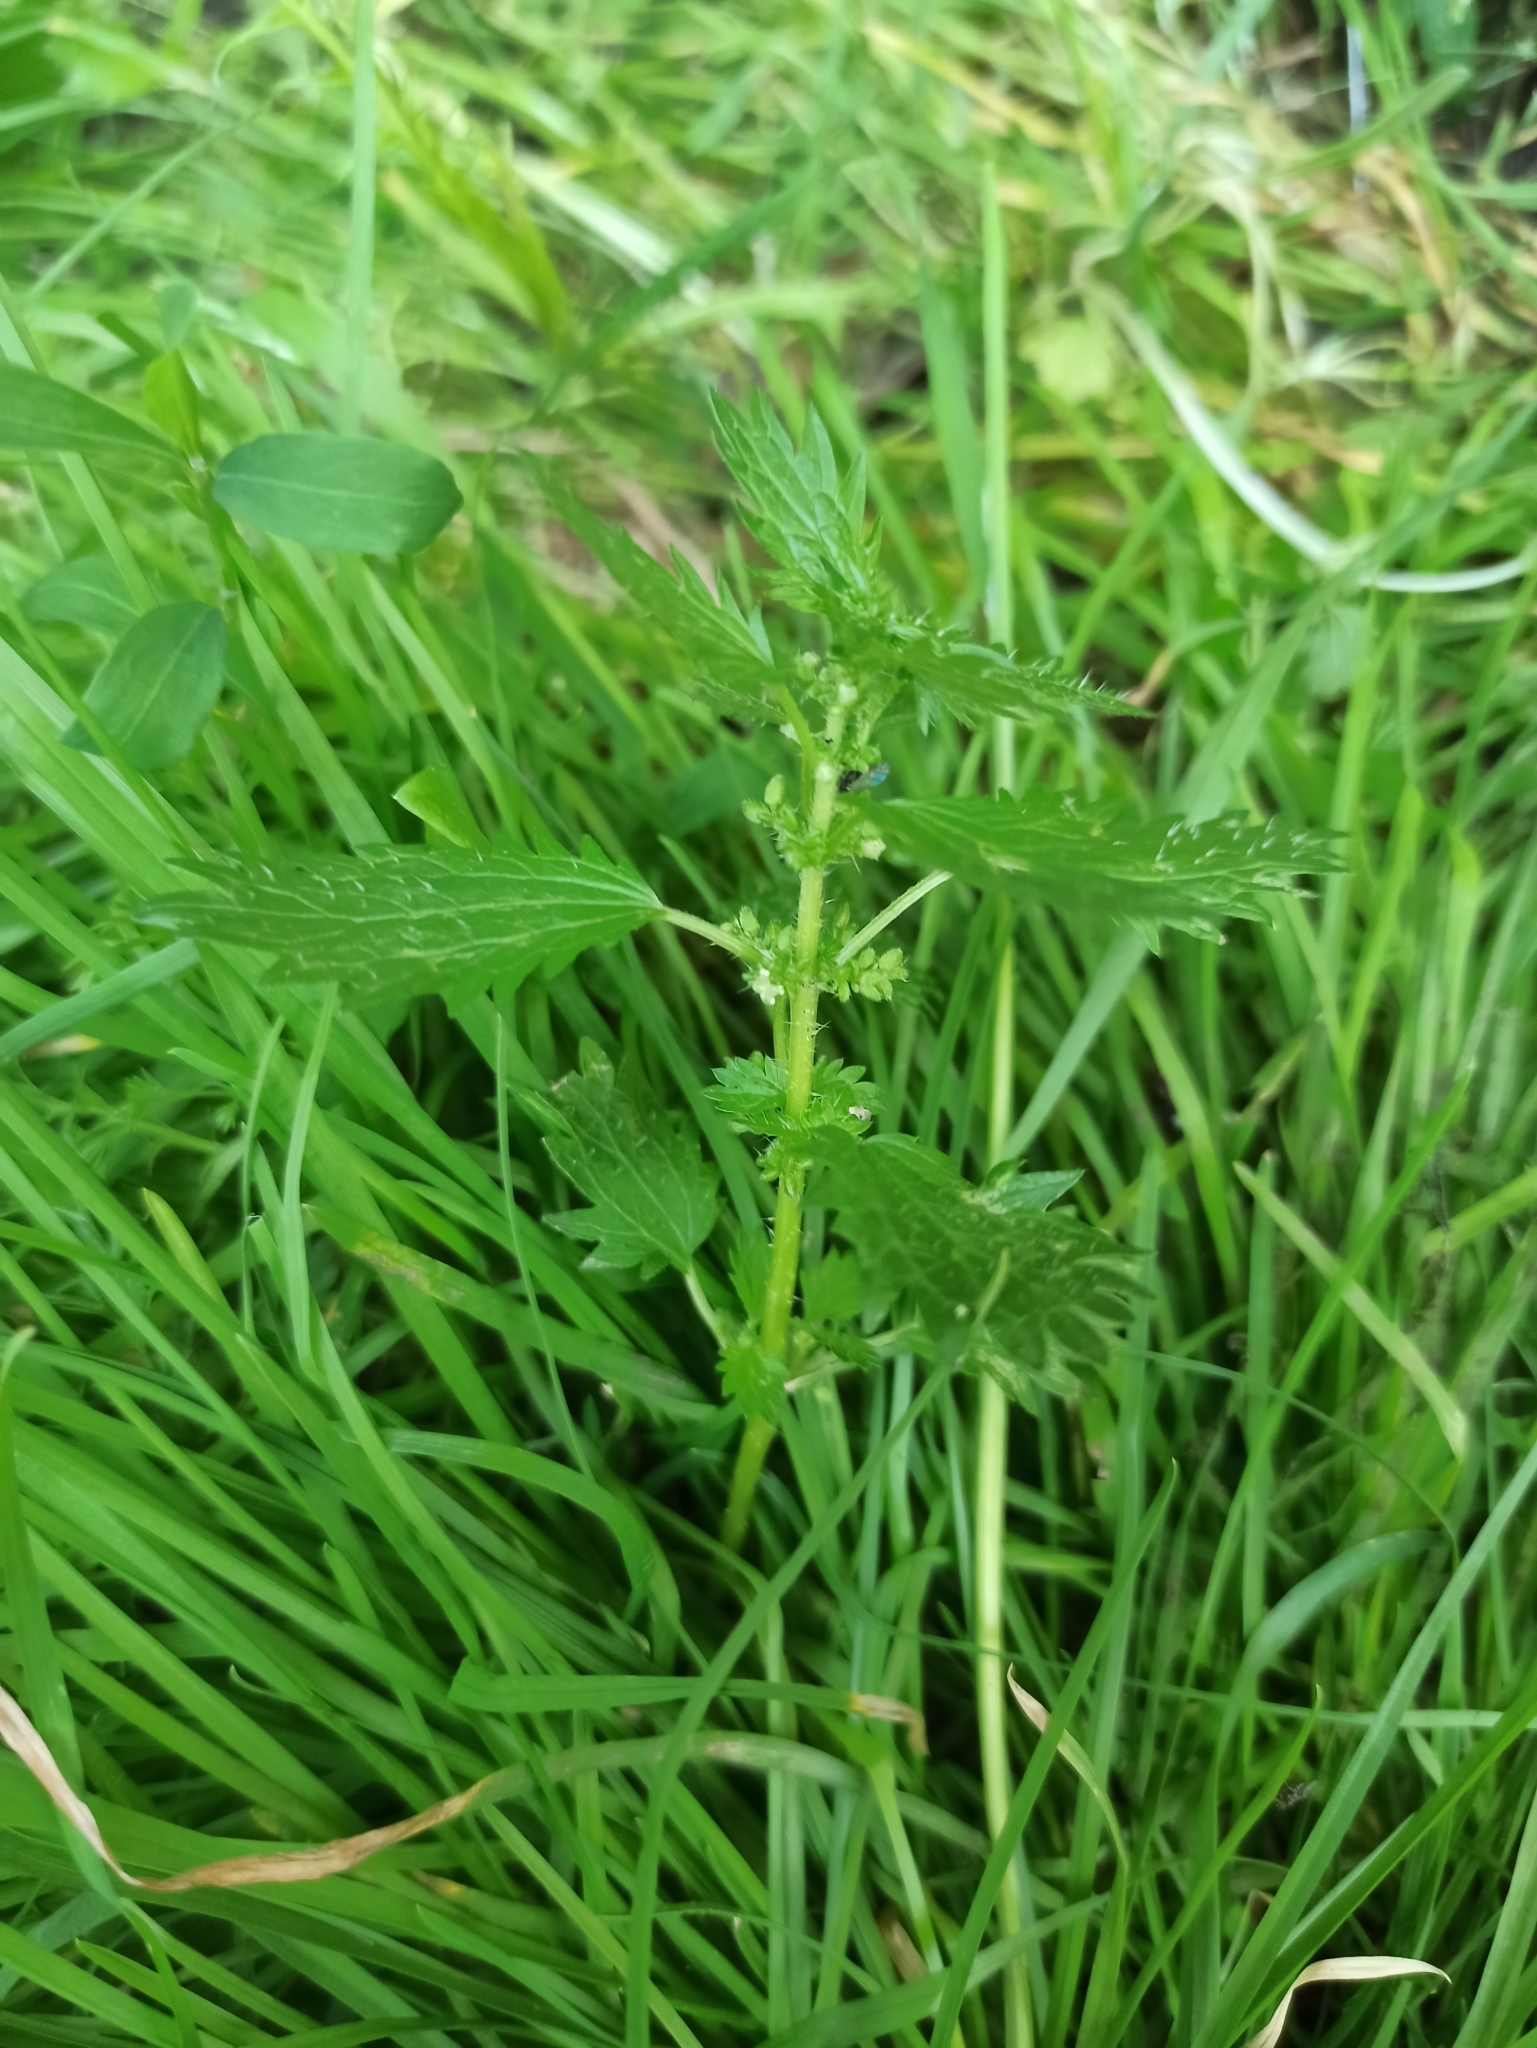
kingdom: Plantae
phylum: Tracheophyta
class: Magnoliopsida
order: Rosales
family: Urticaceae
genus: Urtica
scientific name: Urtica urens
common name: Dwarf nettle
